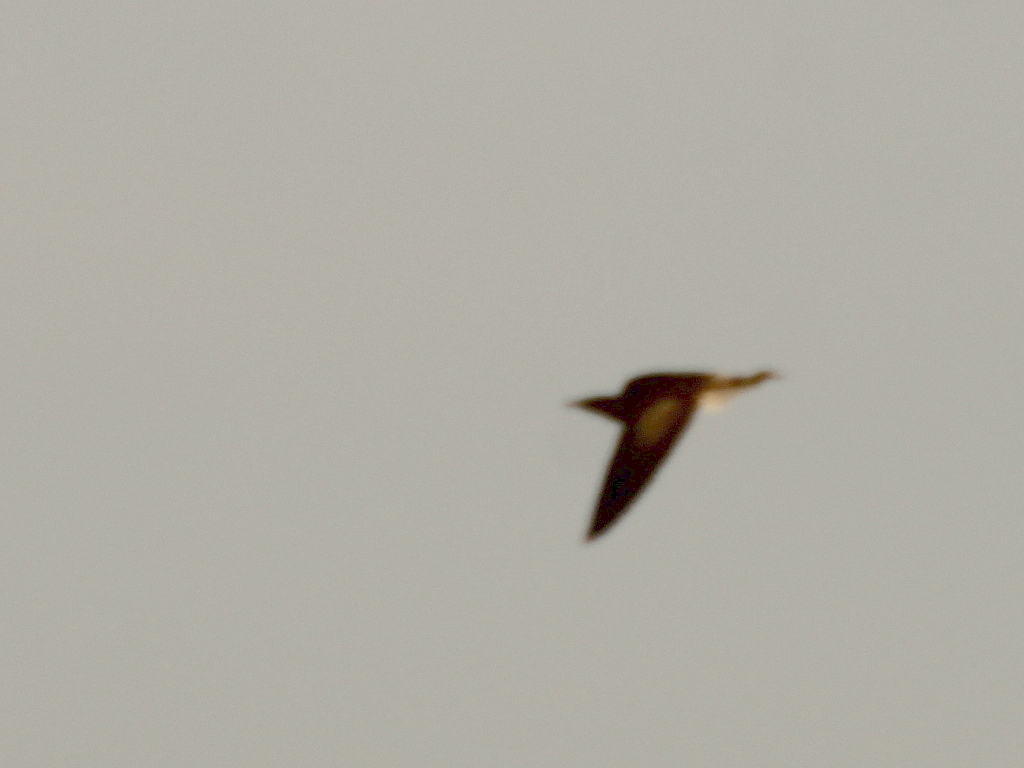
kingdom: Animalia
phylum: Chordata
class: Aves
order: Pelecaniformes
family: Ardeidae
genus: Botaurus
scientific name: Botaurus stellaris
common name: Eurasian bittern
